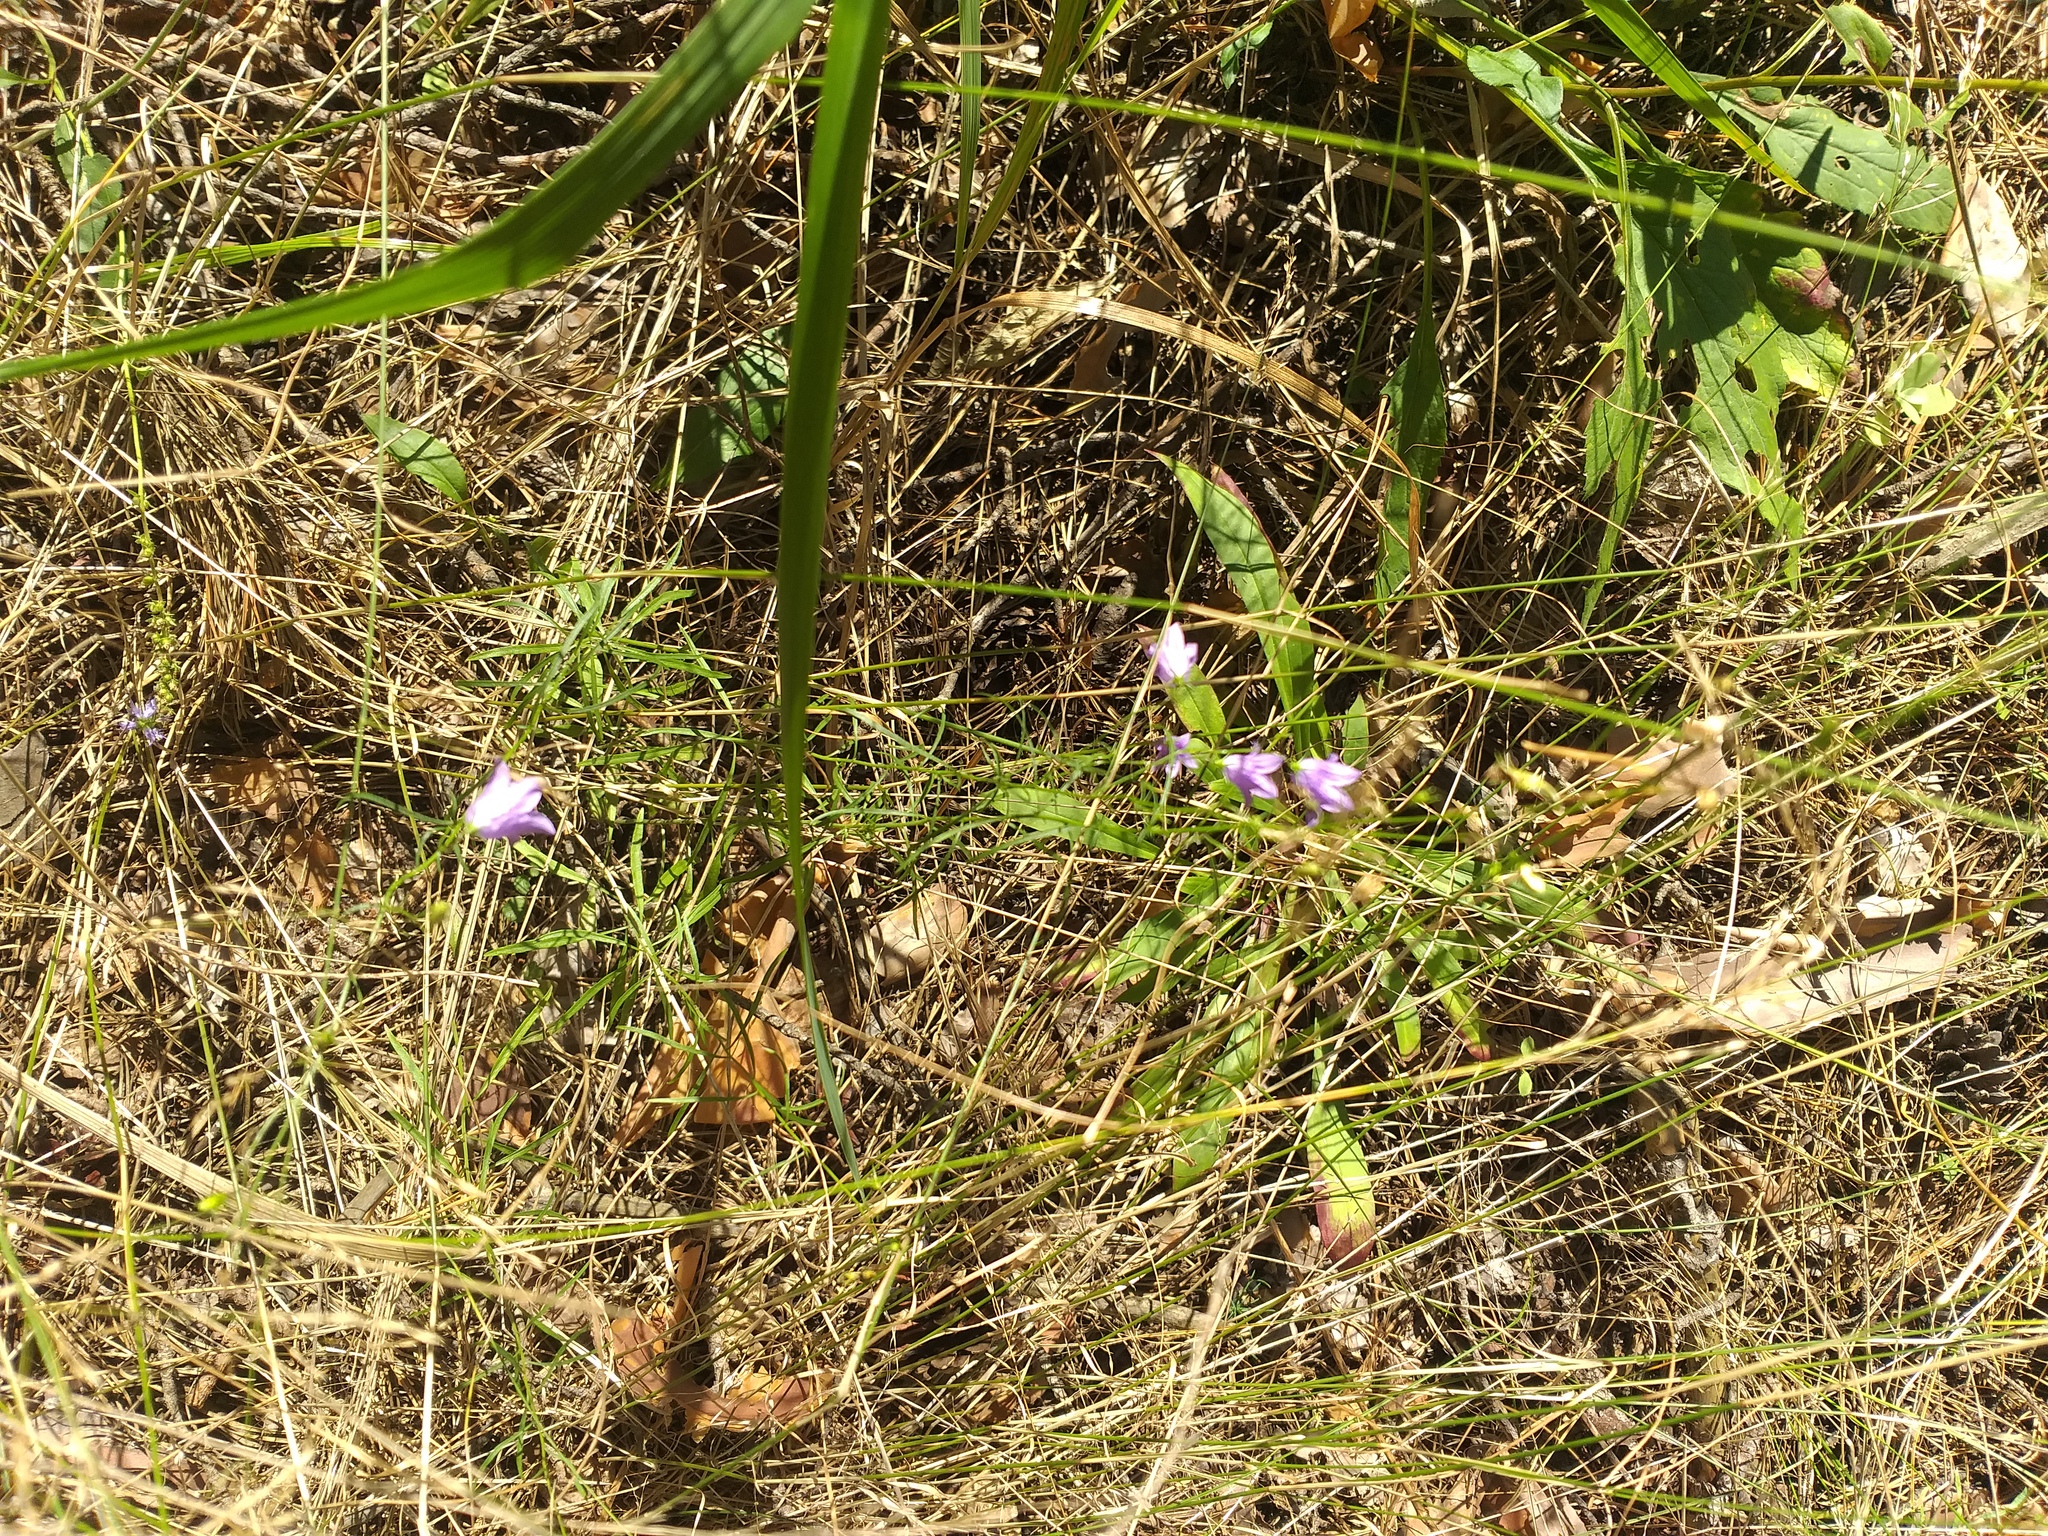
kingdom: Plantae
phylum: Tracheophyta
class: Magnoliopsida
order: Asterales
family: Campanulaceae
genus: Campanula
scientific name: Campanula rotundifolia
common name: Harebell
